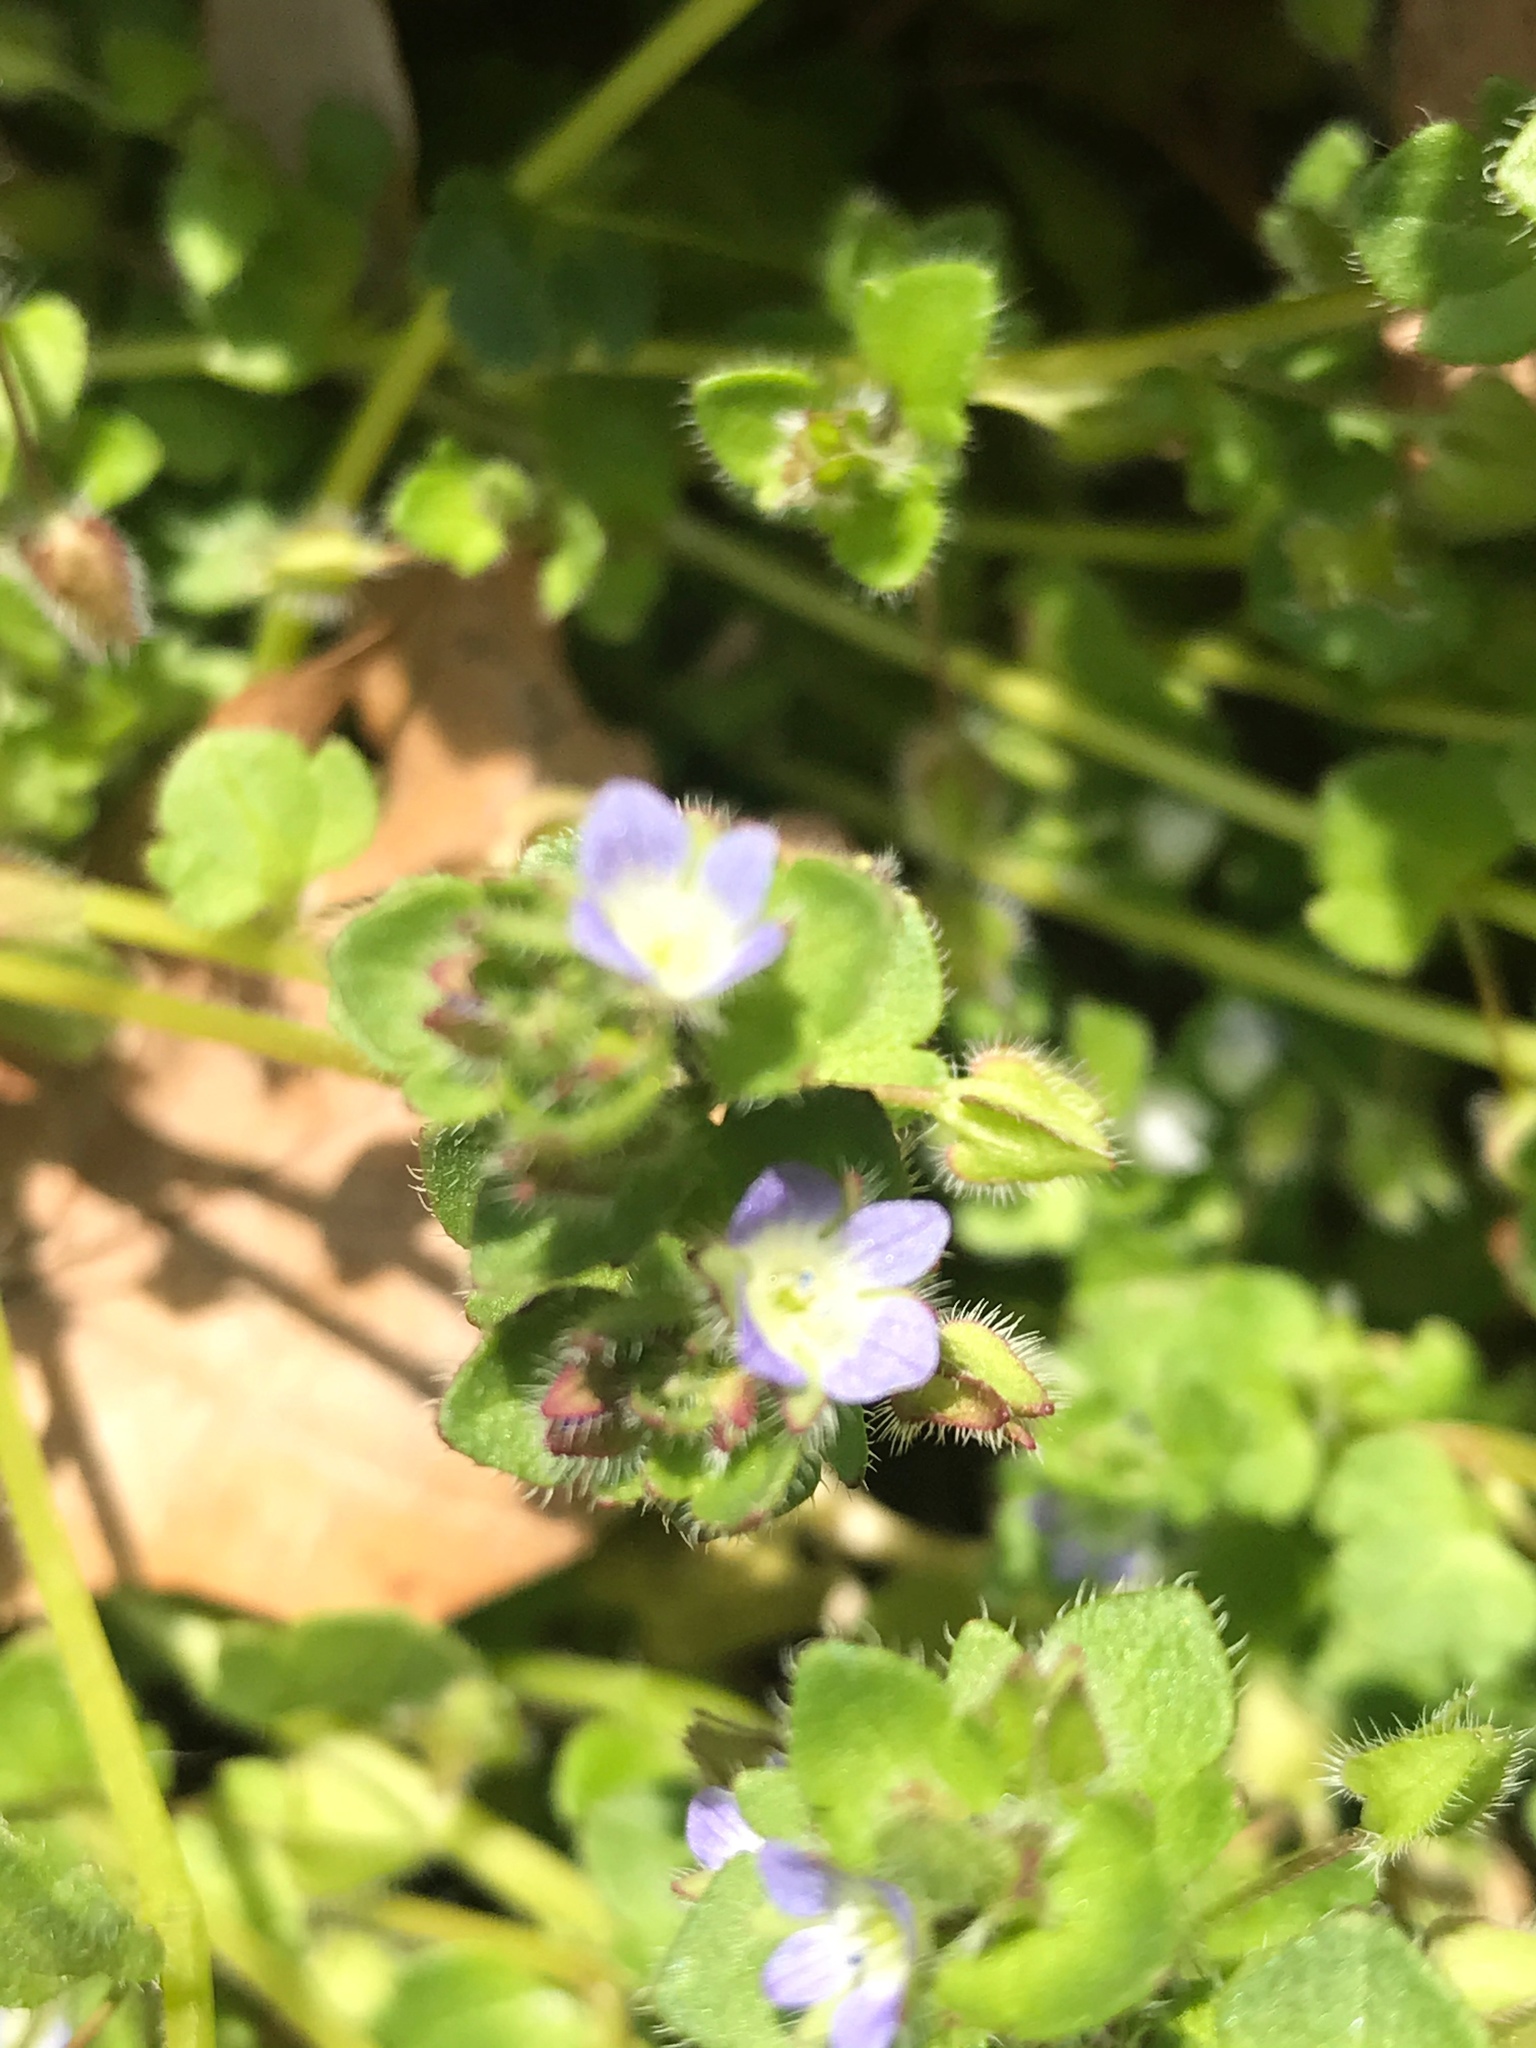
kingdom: Plantae
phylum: Tracheophyta
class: Magnoliopsida
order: Lamiales
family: Plantaginaceae
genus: Veronica
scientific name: Veronica hederifolia
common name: Ivy-leaved speedwell
